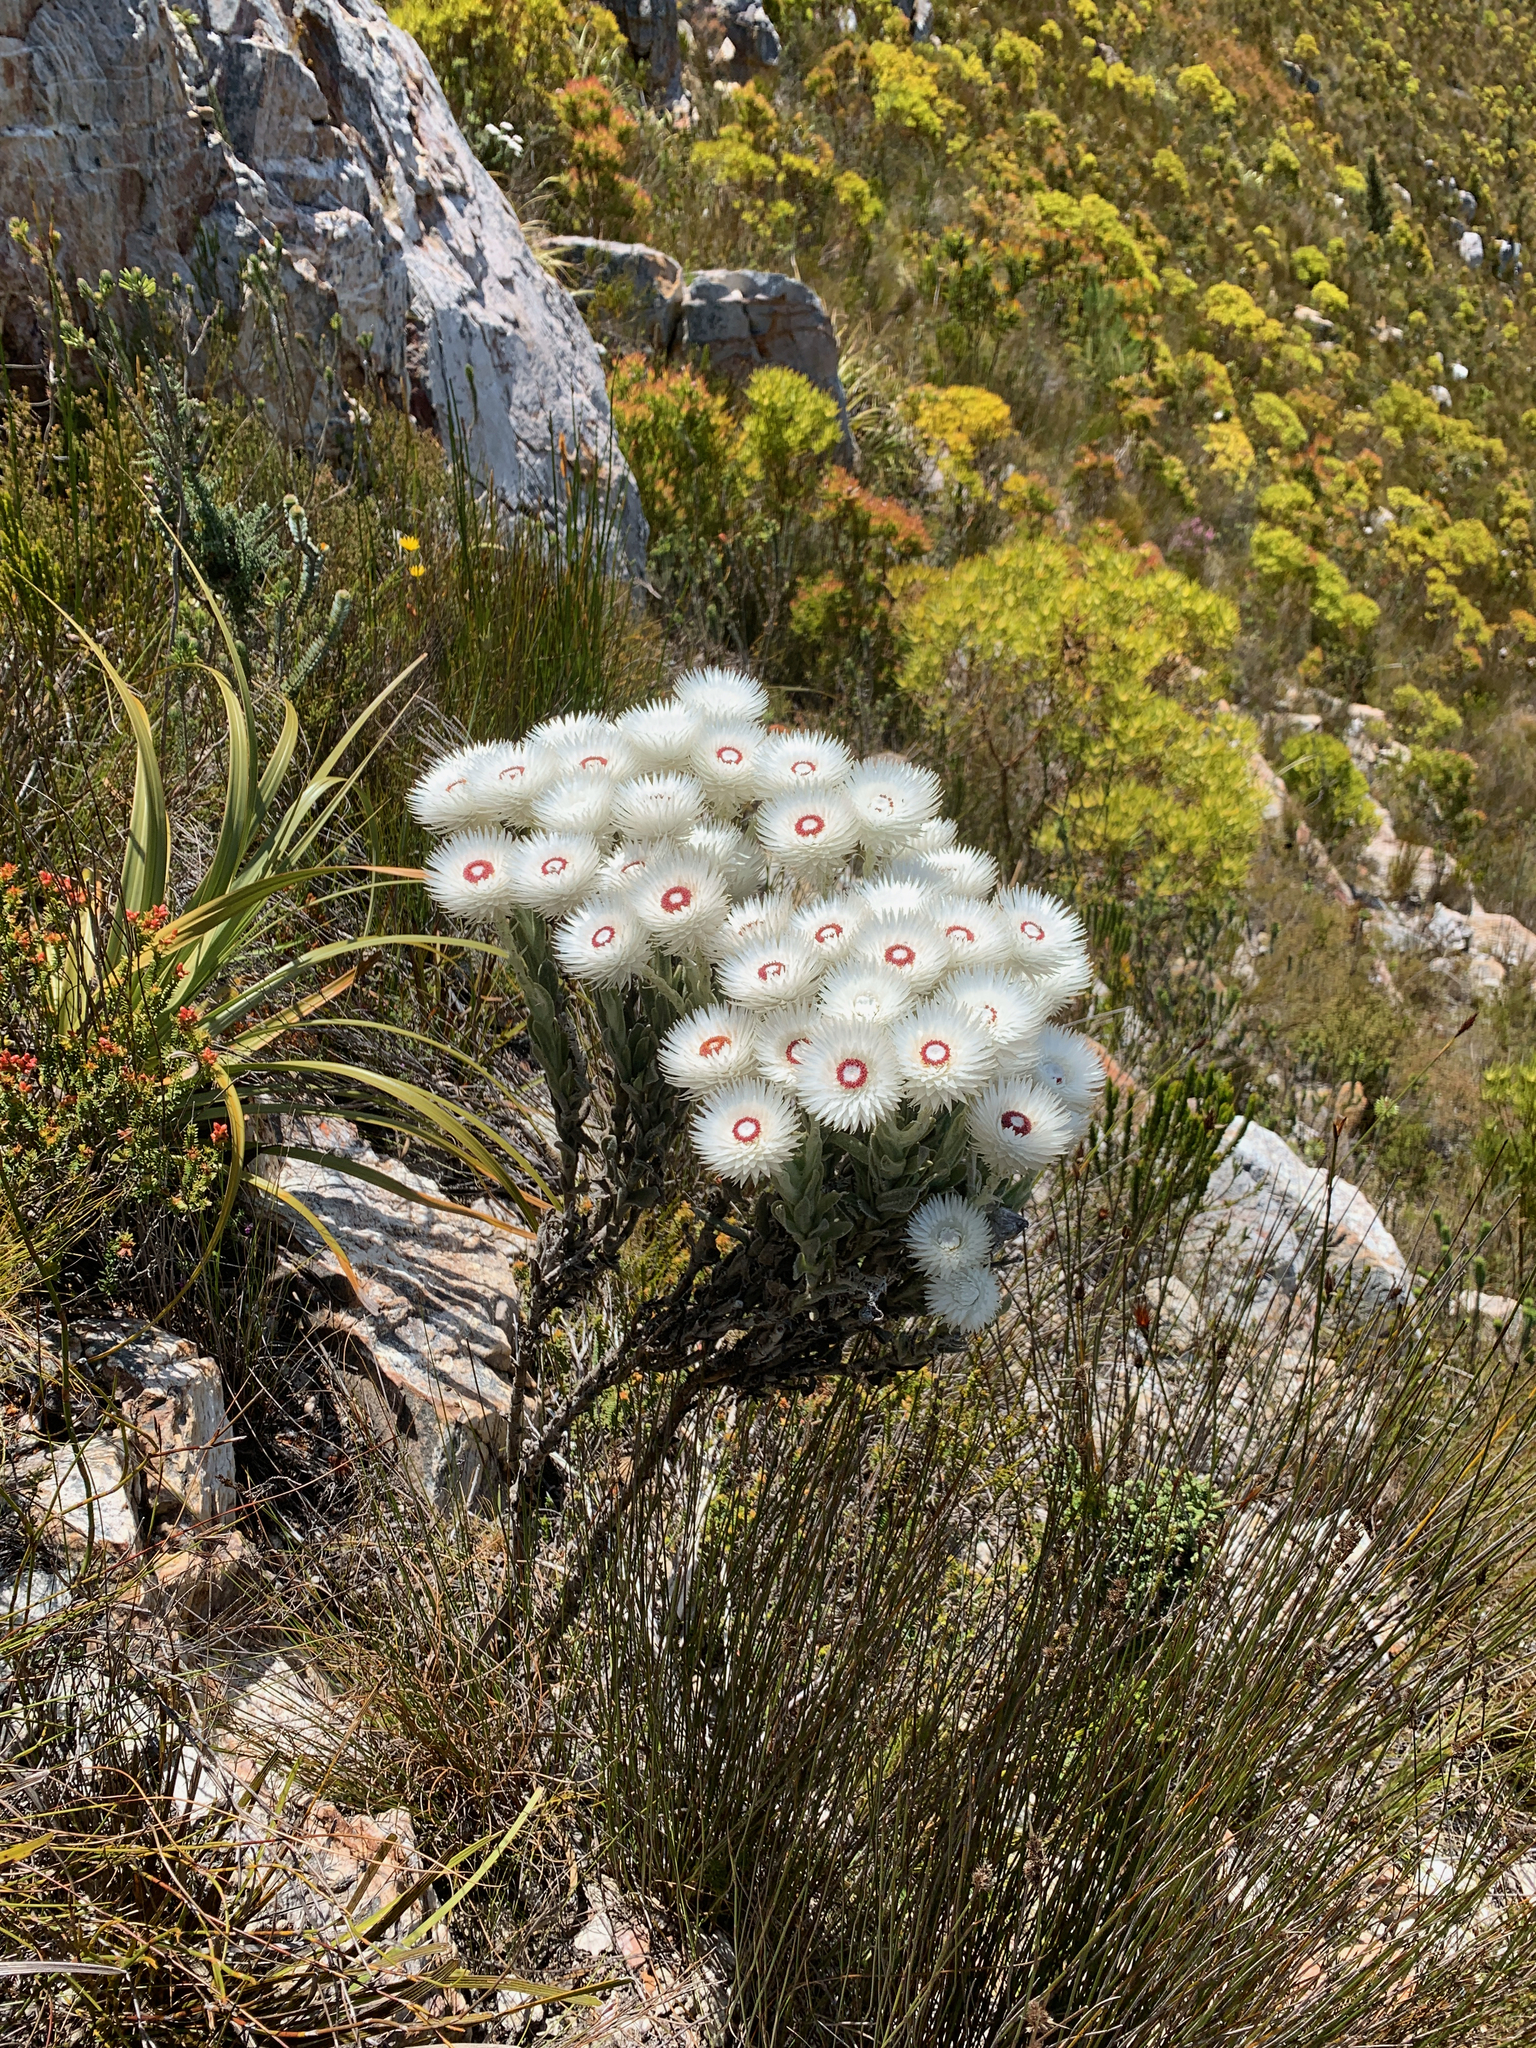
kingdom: Plantae
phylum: Tracheophyta
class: Magnoliopsida
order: Asterales
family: Asteraceae
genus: Syncarpha
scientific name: Syncarpha vestita
